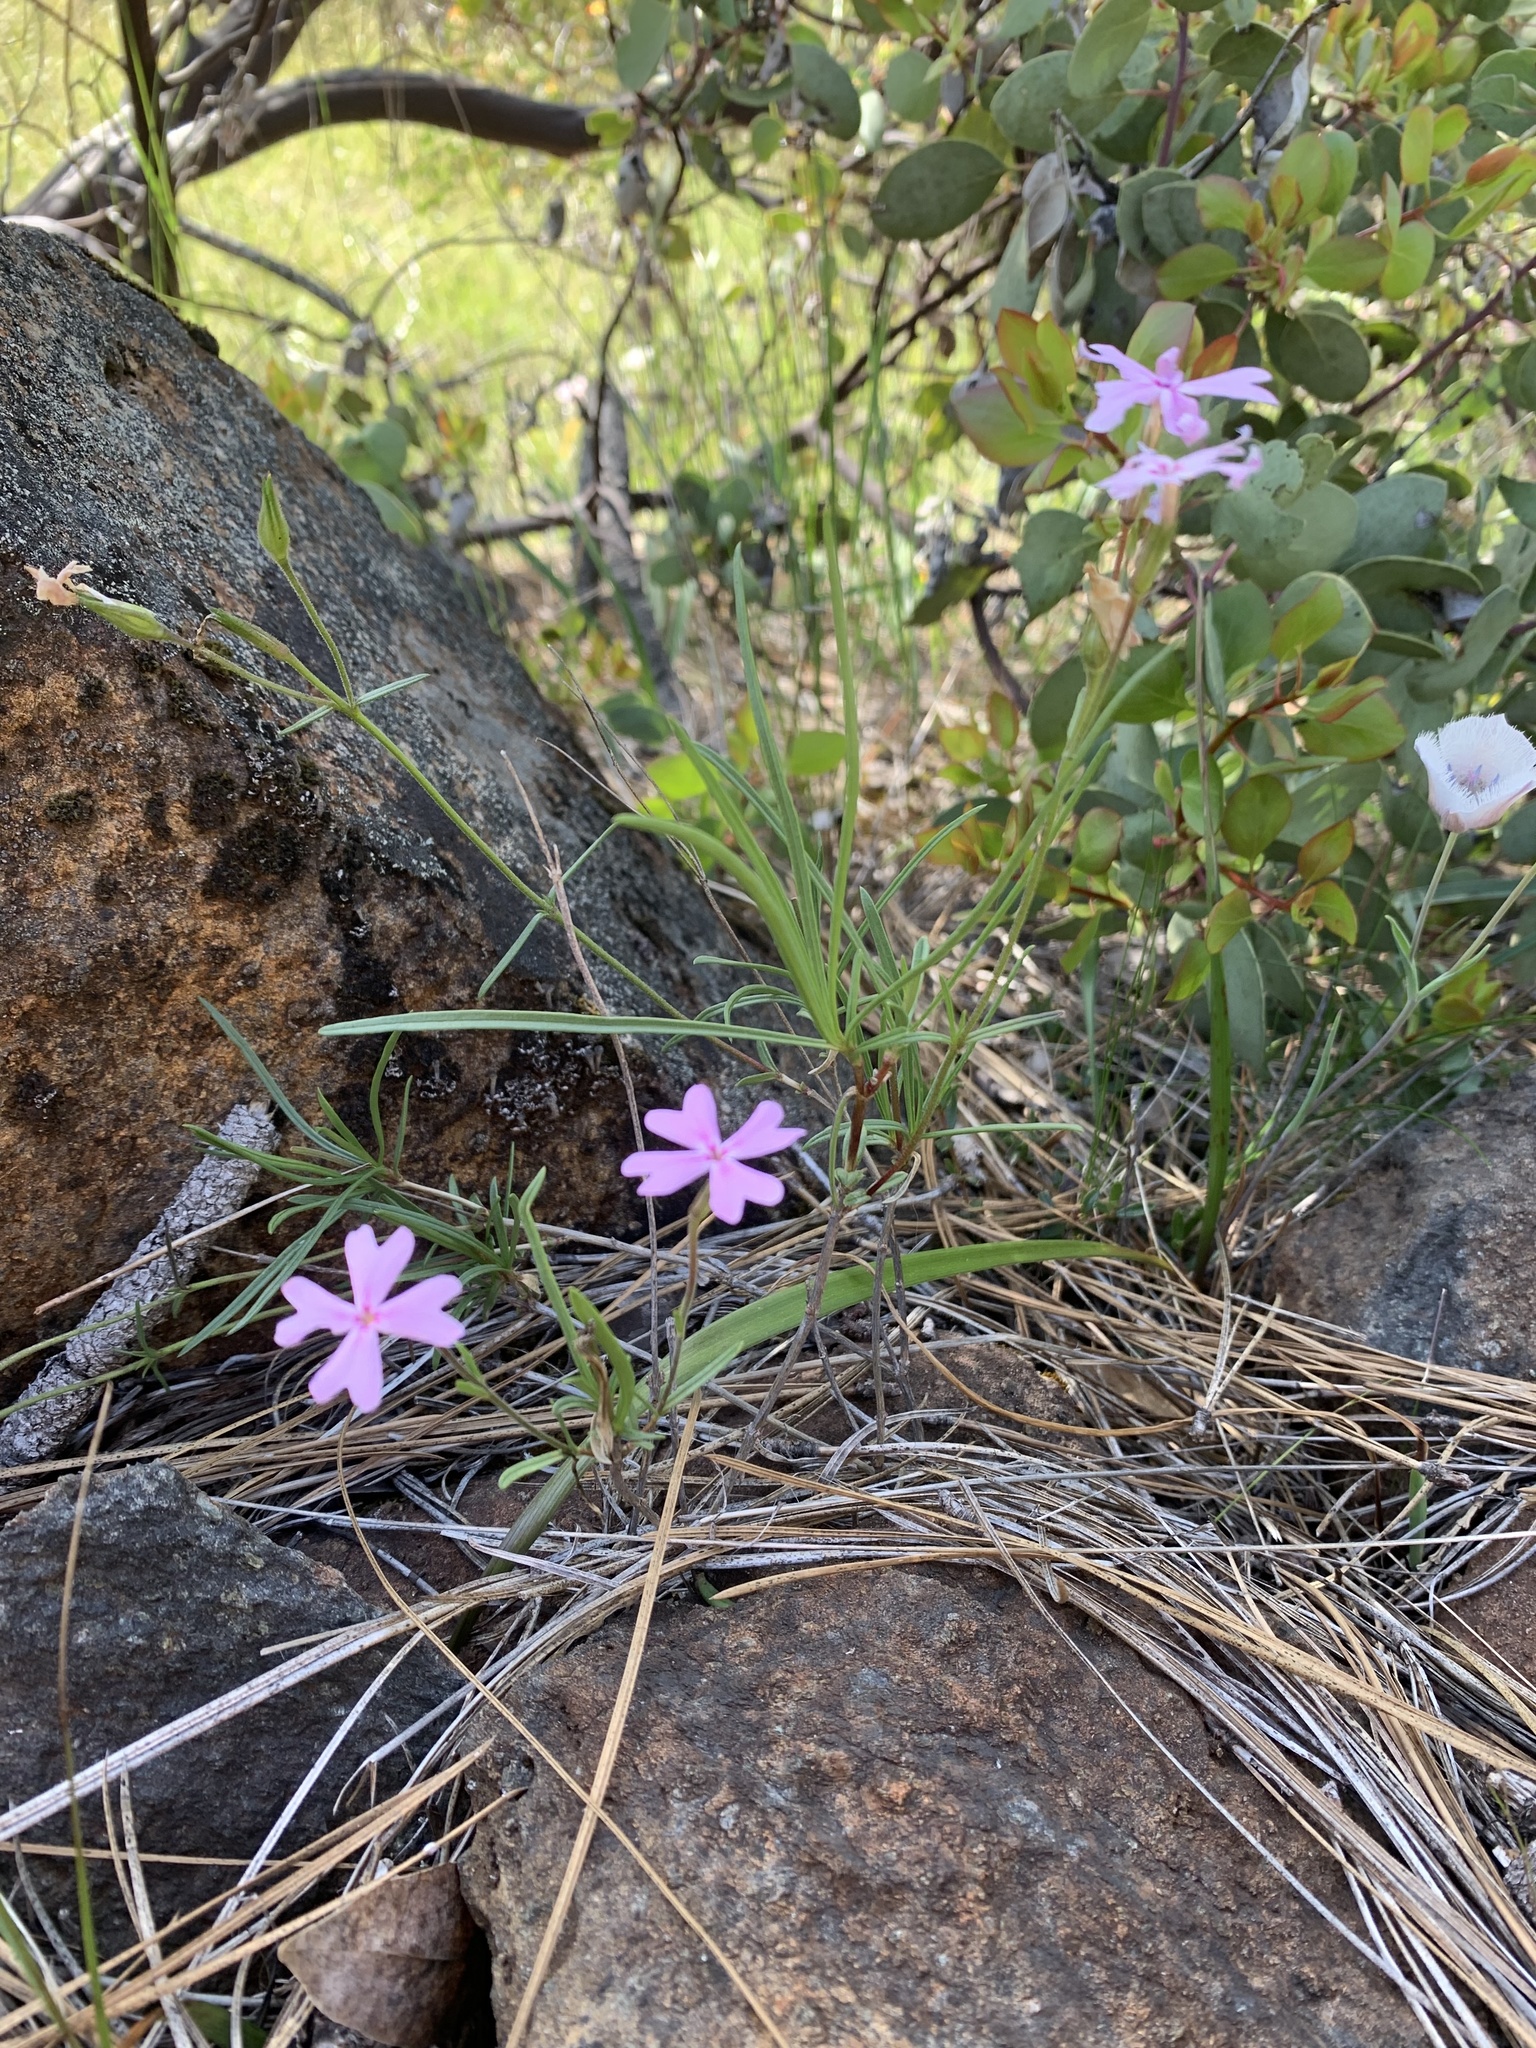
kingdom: Plantae
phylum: Tracheophyta
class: Magnoliopsida
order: Ericales
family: Polemoniaceae
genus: Phlox
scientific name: Phlox speciosa
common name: Bush phlox
